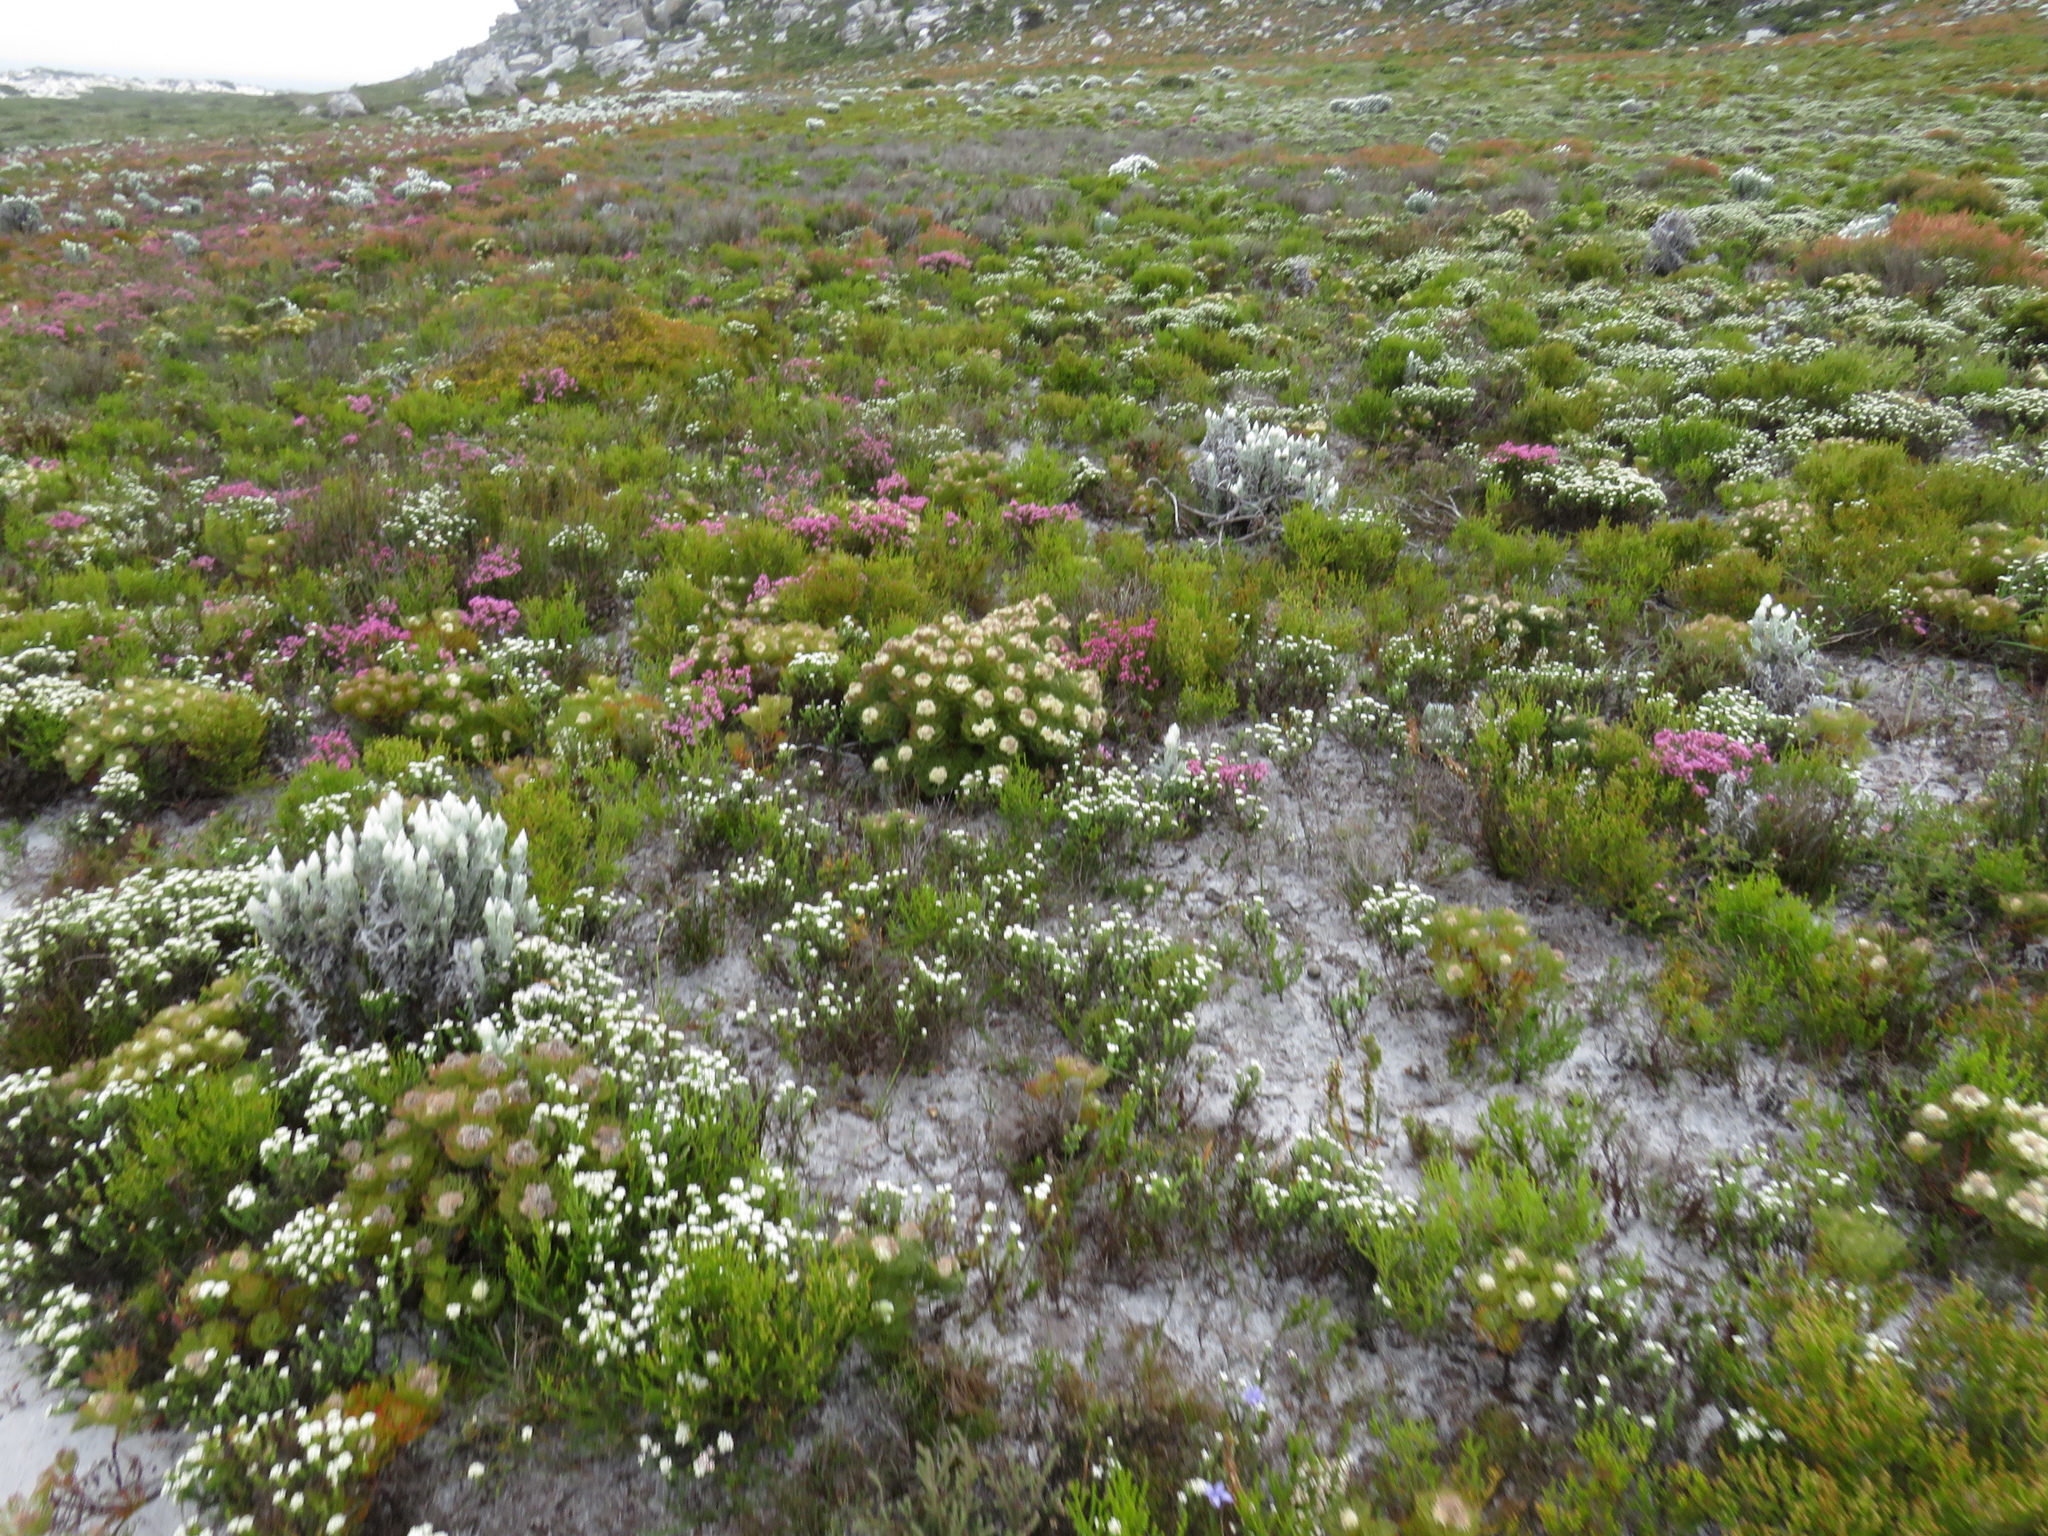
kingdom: Plantae
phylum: Tracheophyta
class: Magnoliopsida
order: Proteales
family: Proteaceae
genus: Serruria
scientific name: Serruria glomerata
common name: Cluster spiderhead
